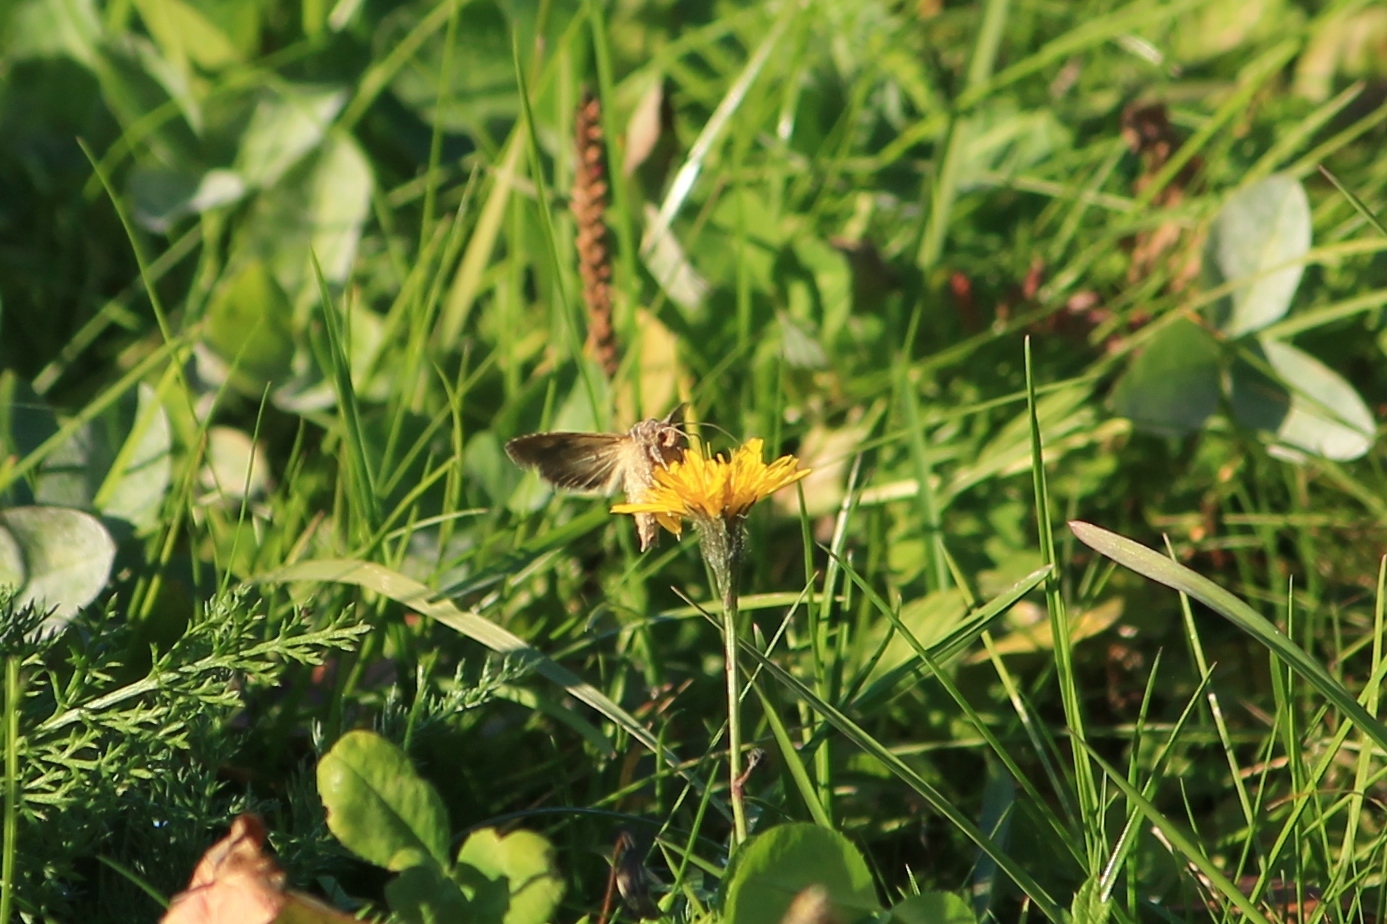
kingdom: Animalia
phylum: Arthropoda
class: Insecta
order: Lepidoptera
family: Noctuidae
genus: Autographa
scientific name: Autographa gamma
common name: Silver y
